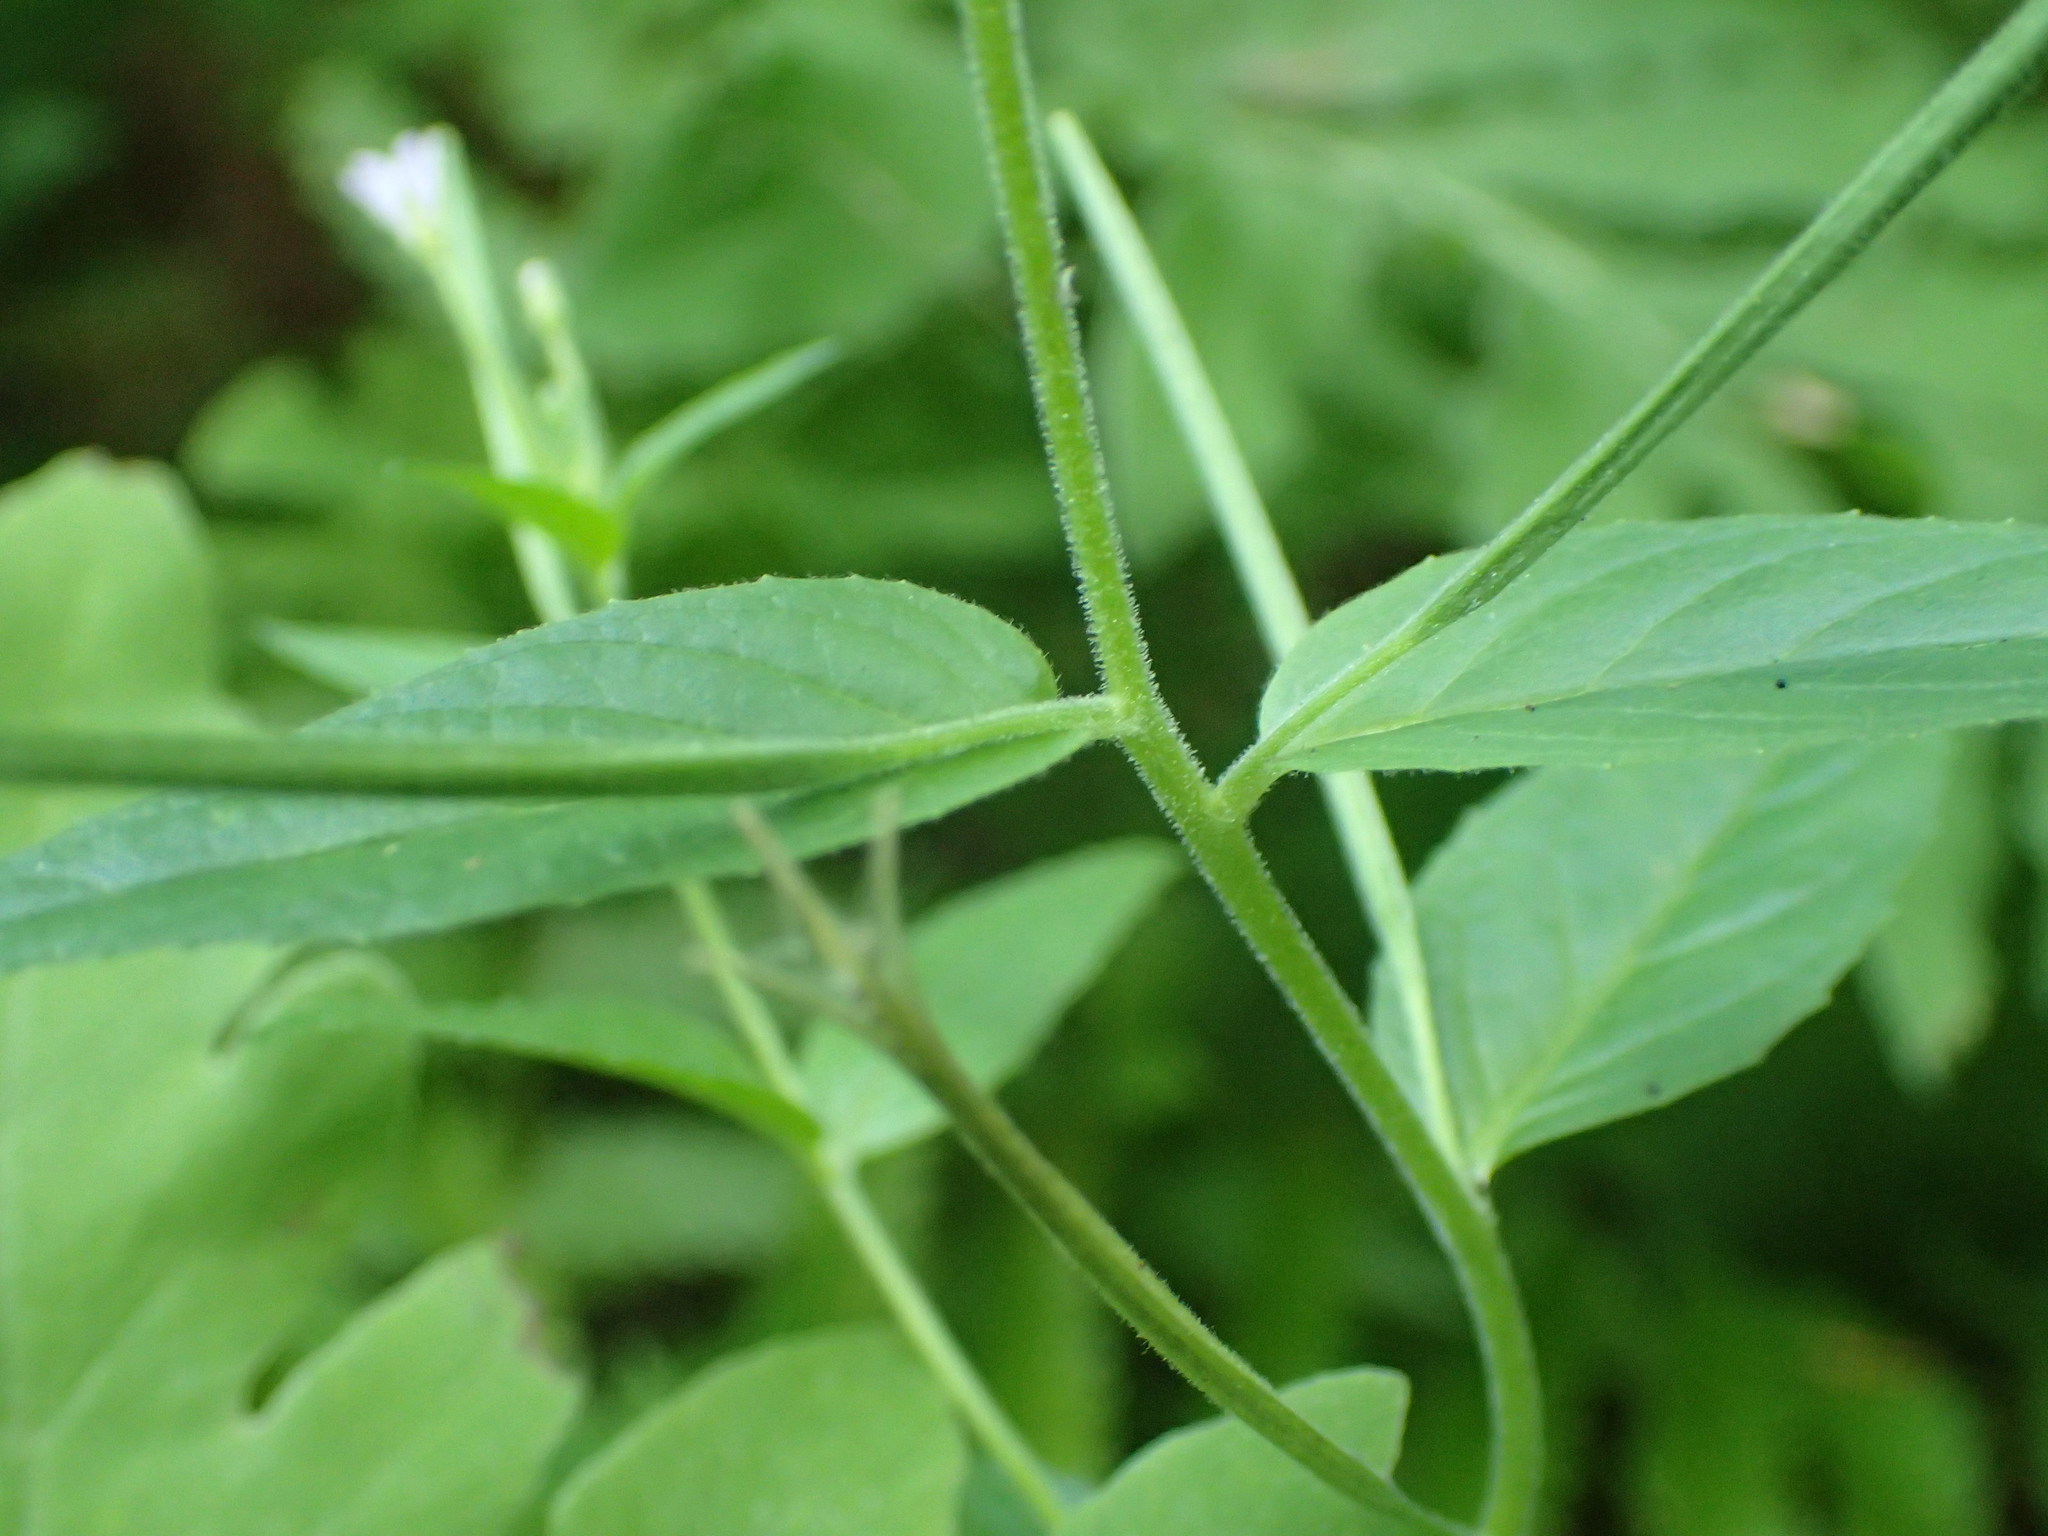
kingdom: Plantae
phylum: Tracheophyta
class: Magnoliopsida
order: Myrtales
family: Onagraceae
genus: Epilobium
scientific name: Epilobium ciliatum
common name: American willowherb
